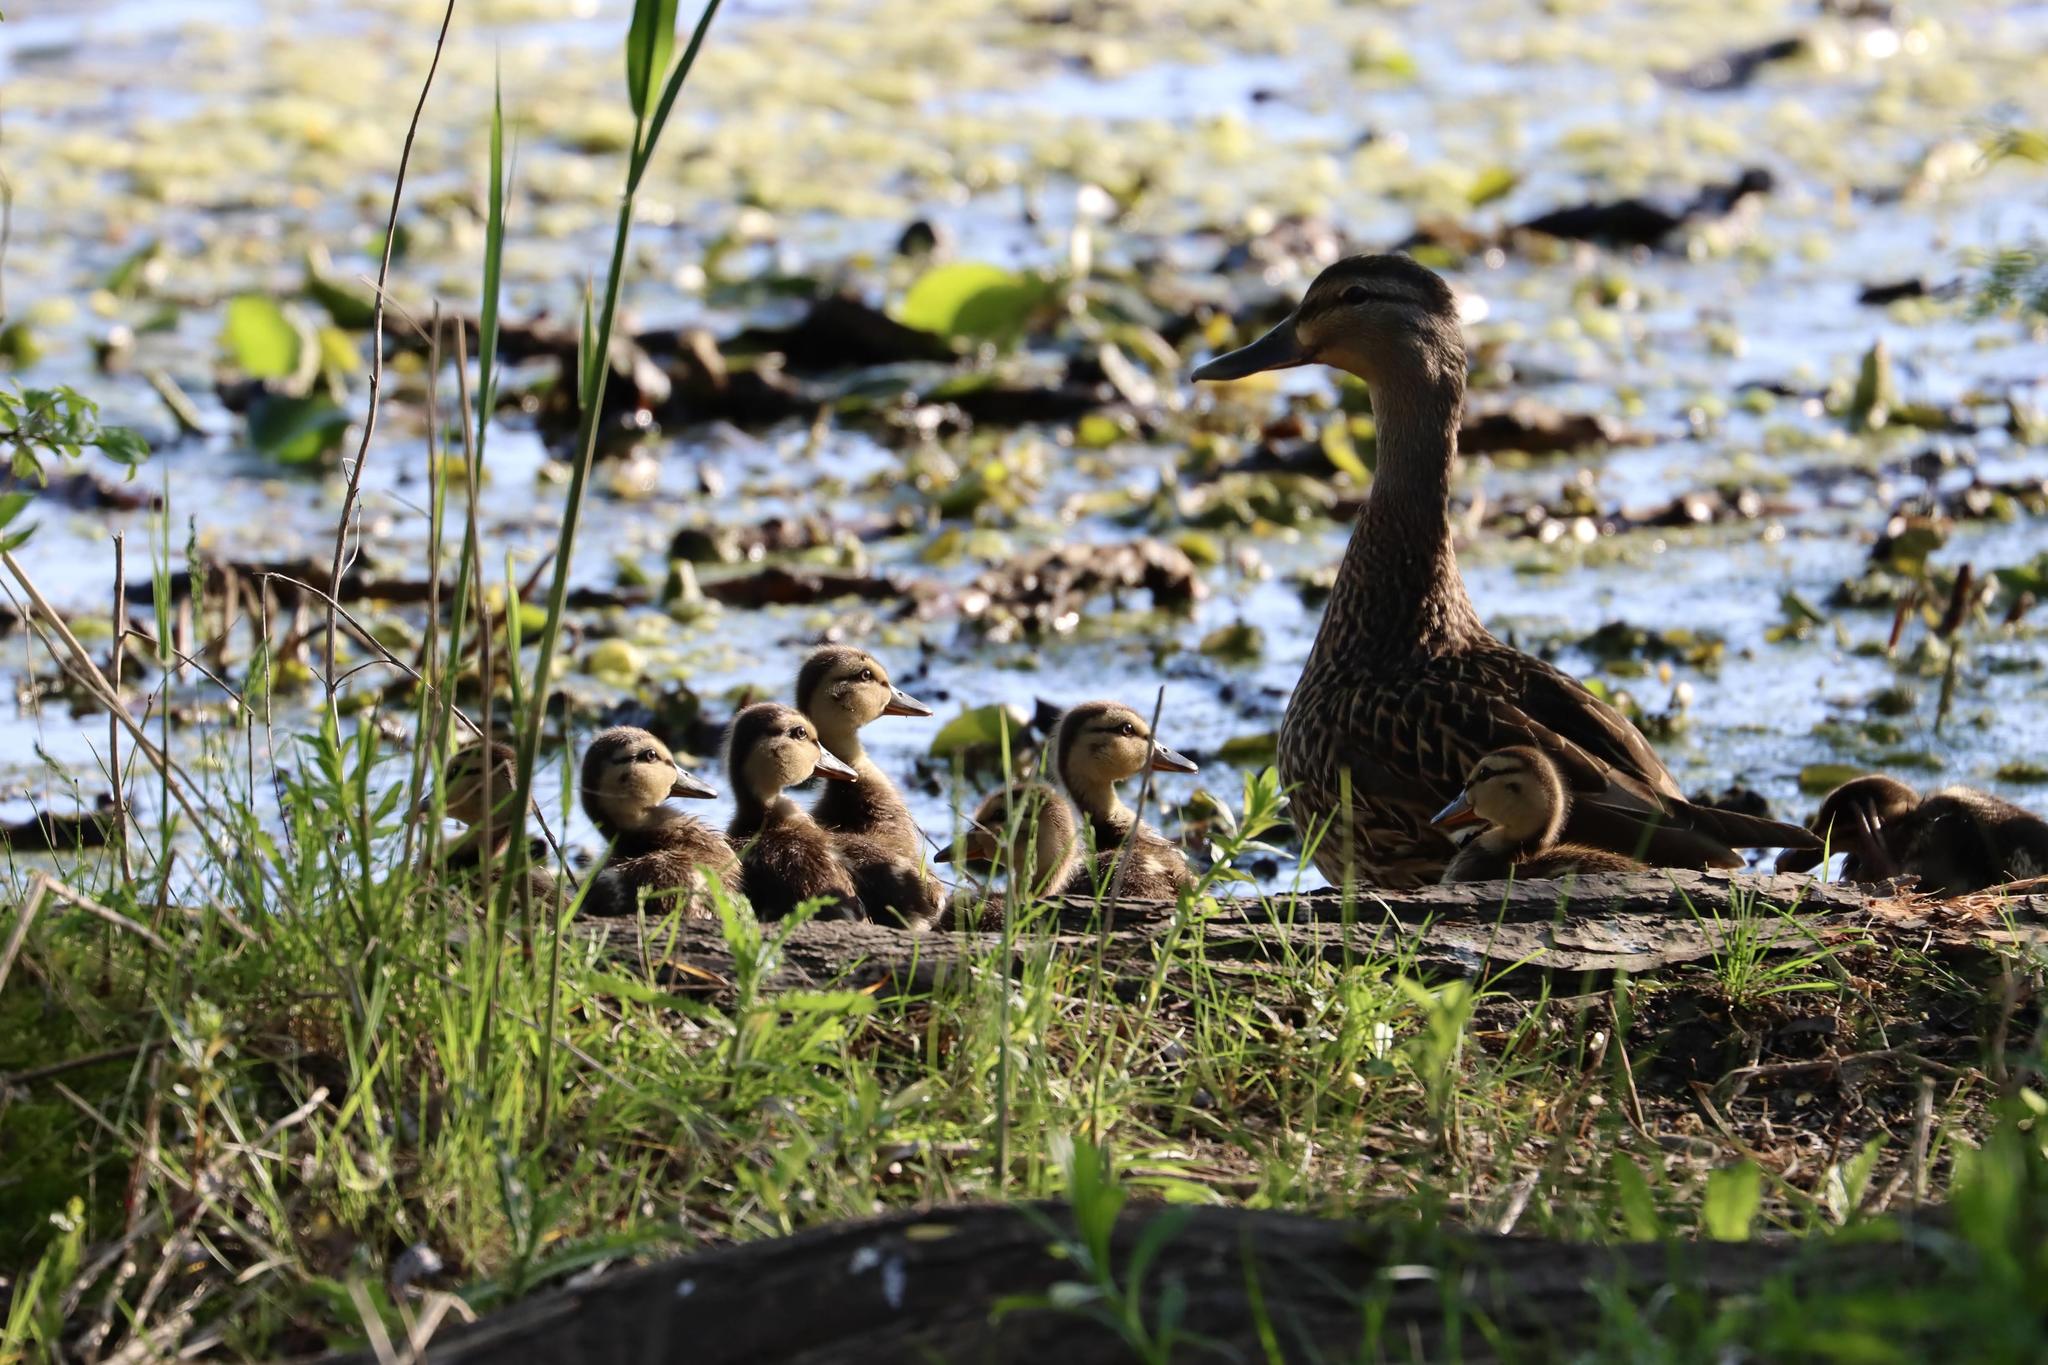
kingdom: Animalia
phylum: Chordata
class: Aves
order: Anseriformes
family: Anatidae
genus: Anas
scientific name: Anas platyrhynchos
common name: Mallard
